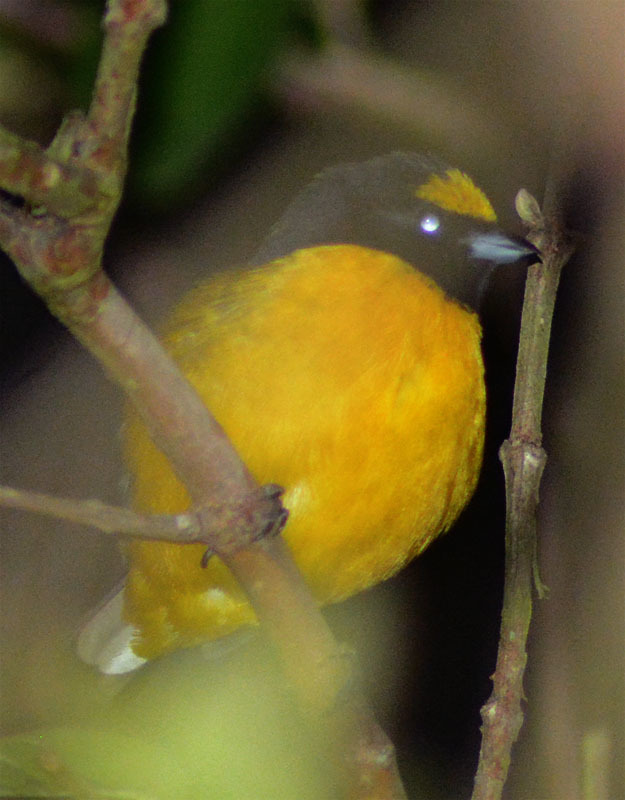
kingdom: Animalia
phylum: Chordata
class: Aves
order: Passeriformes
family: Fringillidae
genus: Euphonia
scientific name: Euphonia affinis
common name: Scrub euphonia
